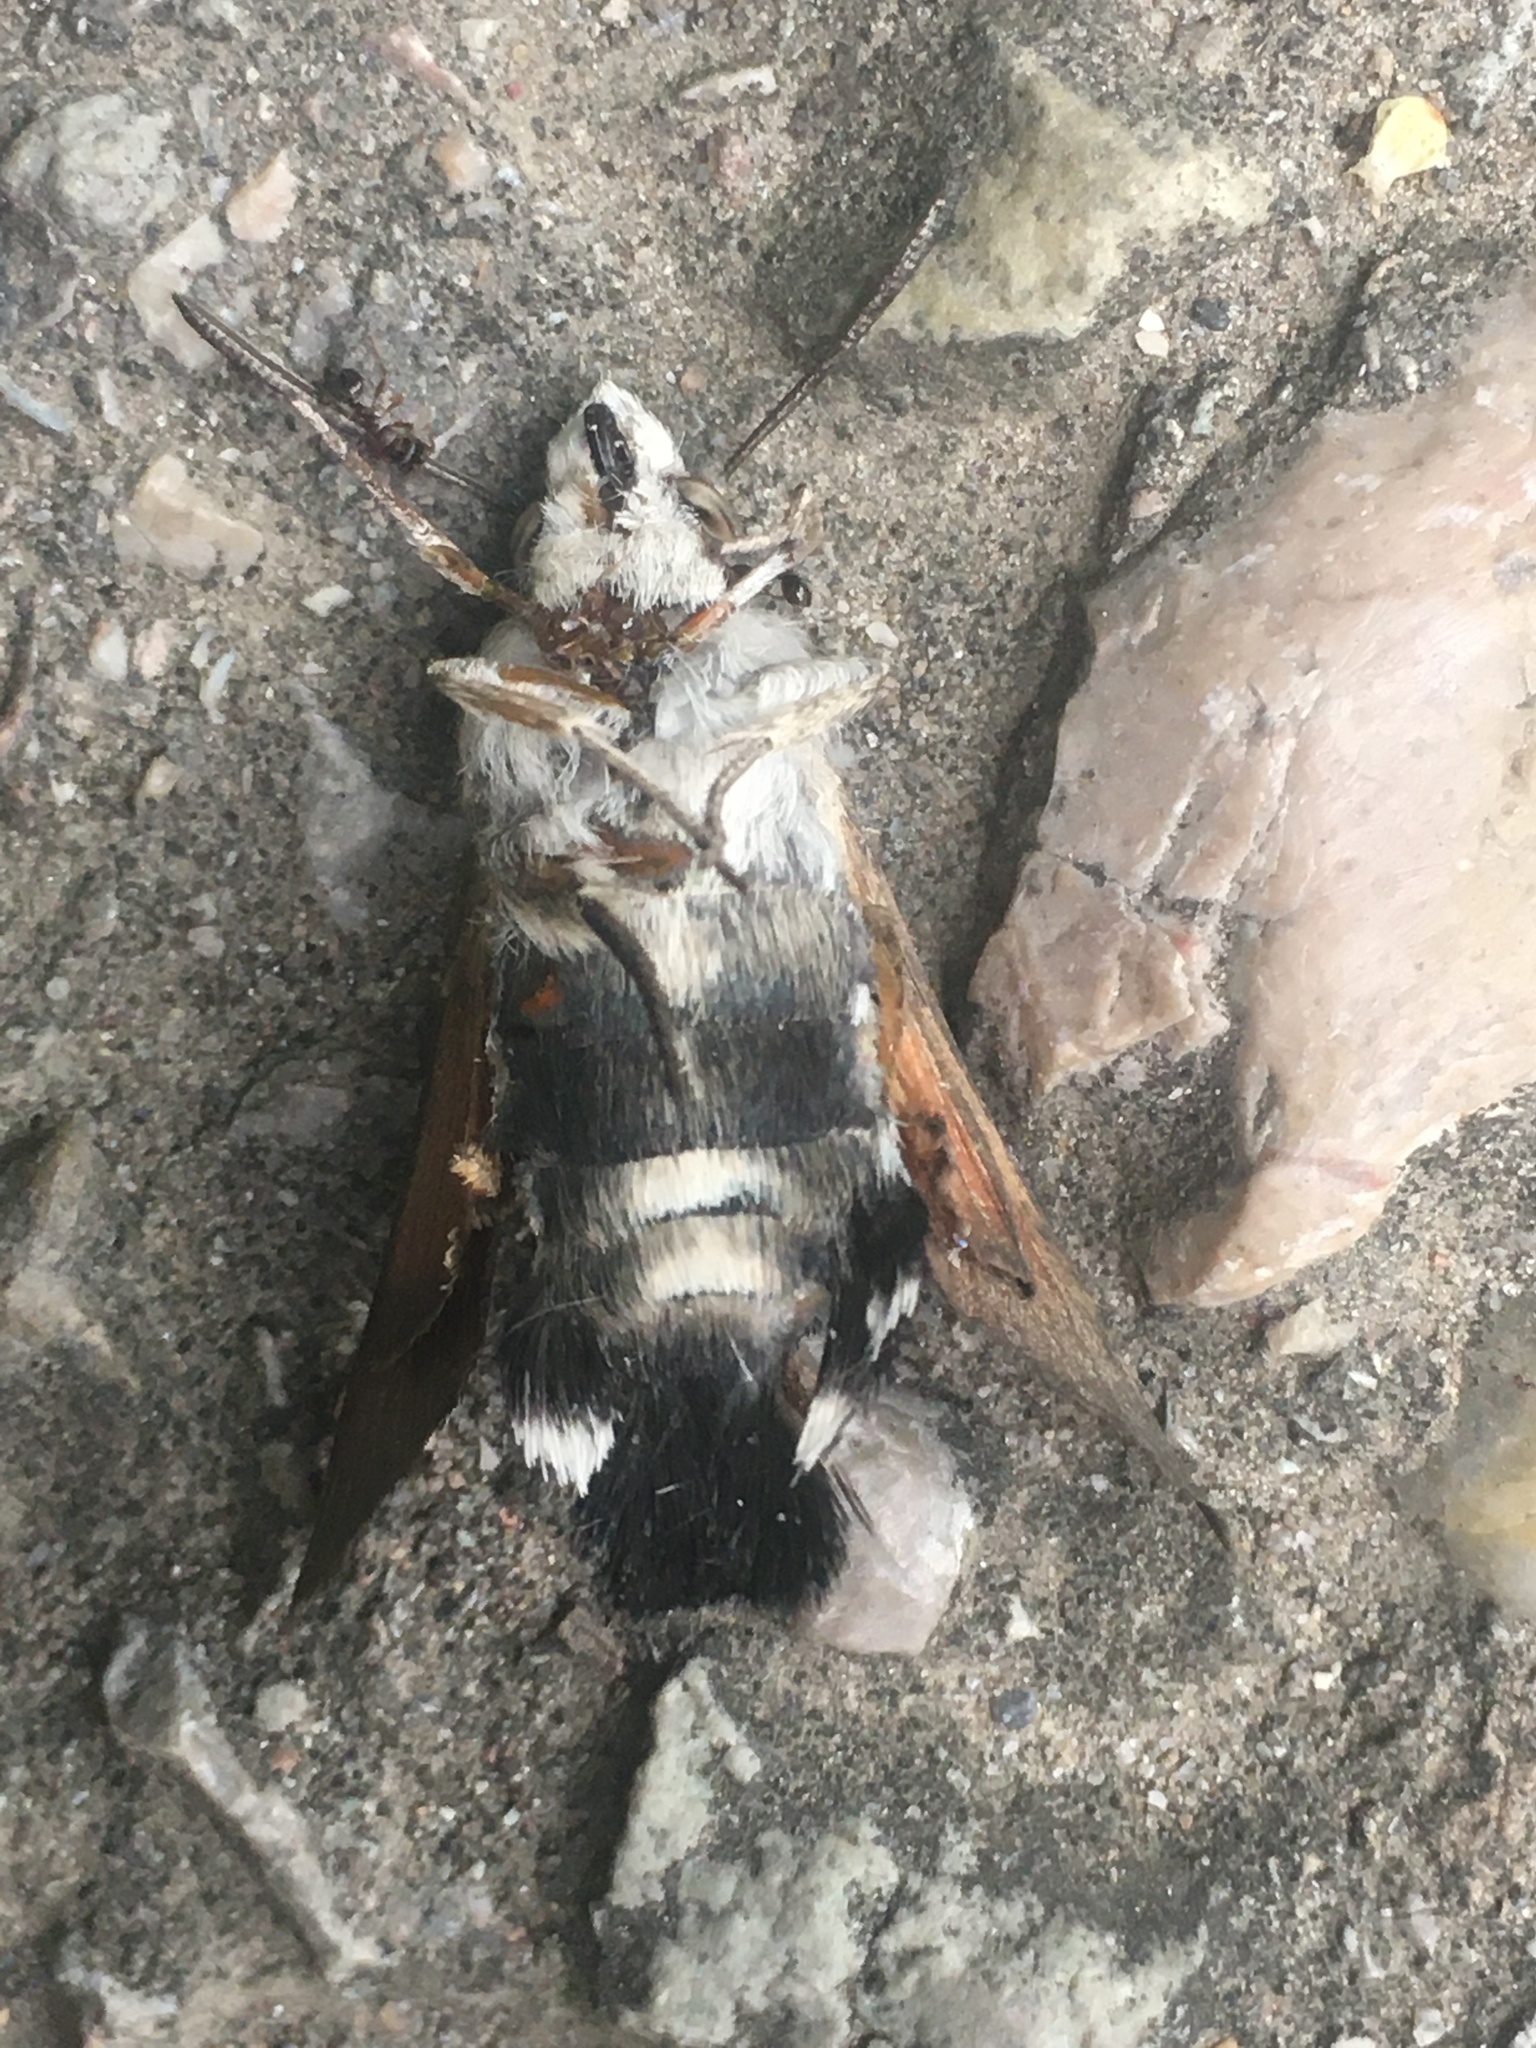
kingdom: Animalia
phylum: Arthropoda
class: Insecta
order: Lepidoptera
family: Sphingidae
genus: Macroglossum
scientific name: Macroglossum stellatarum
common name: Humming-bird hawk-moth
